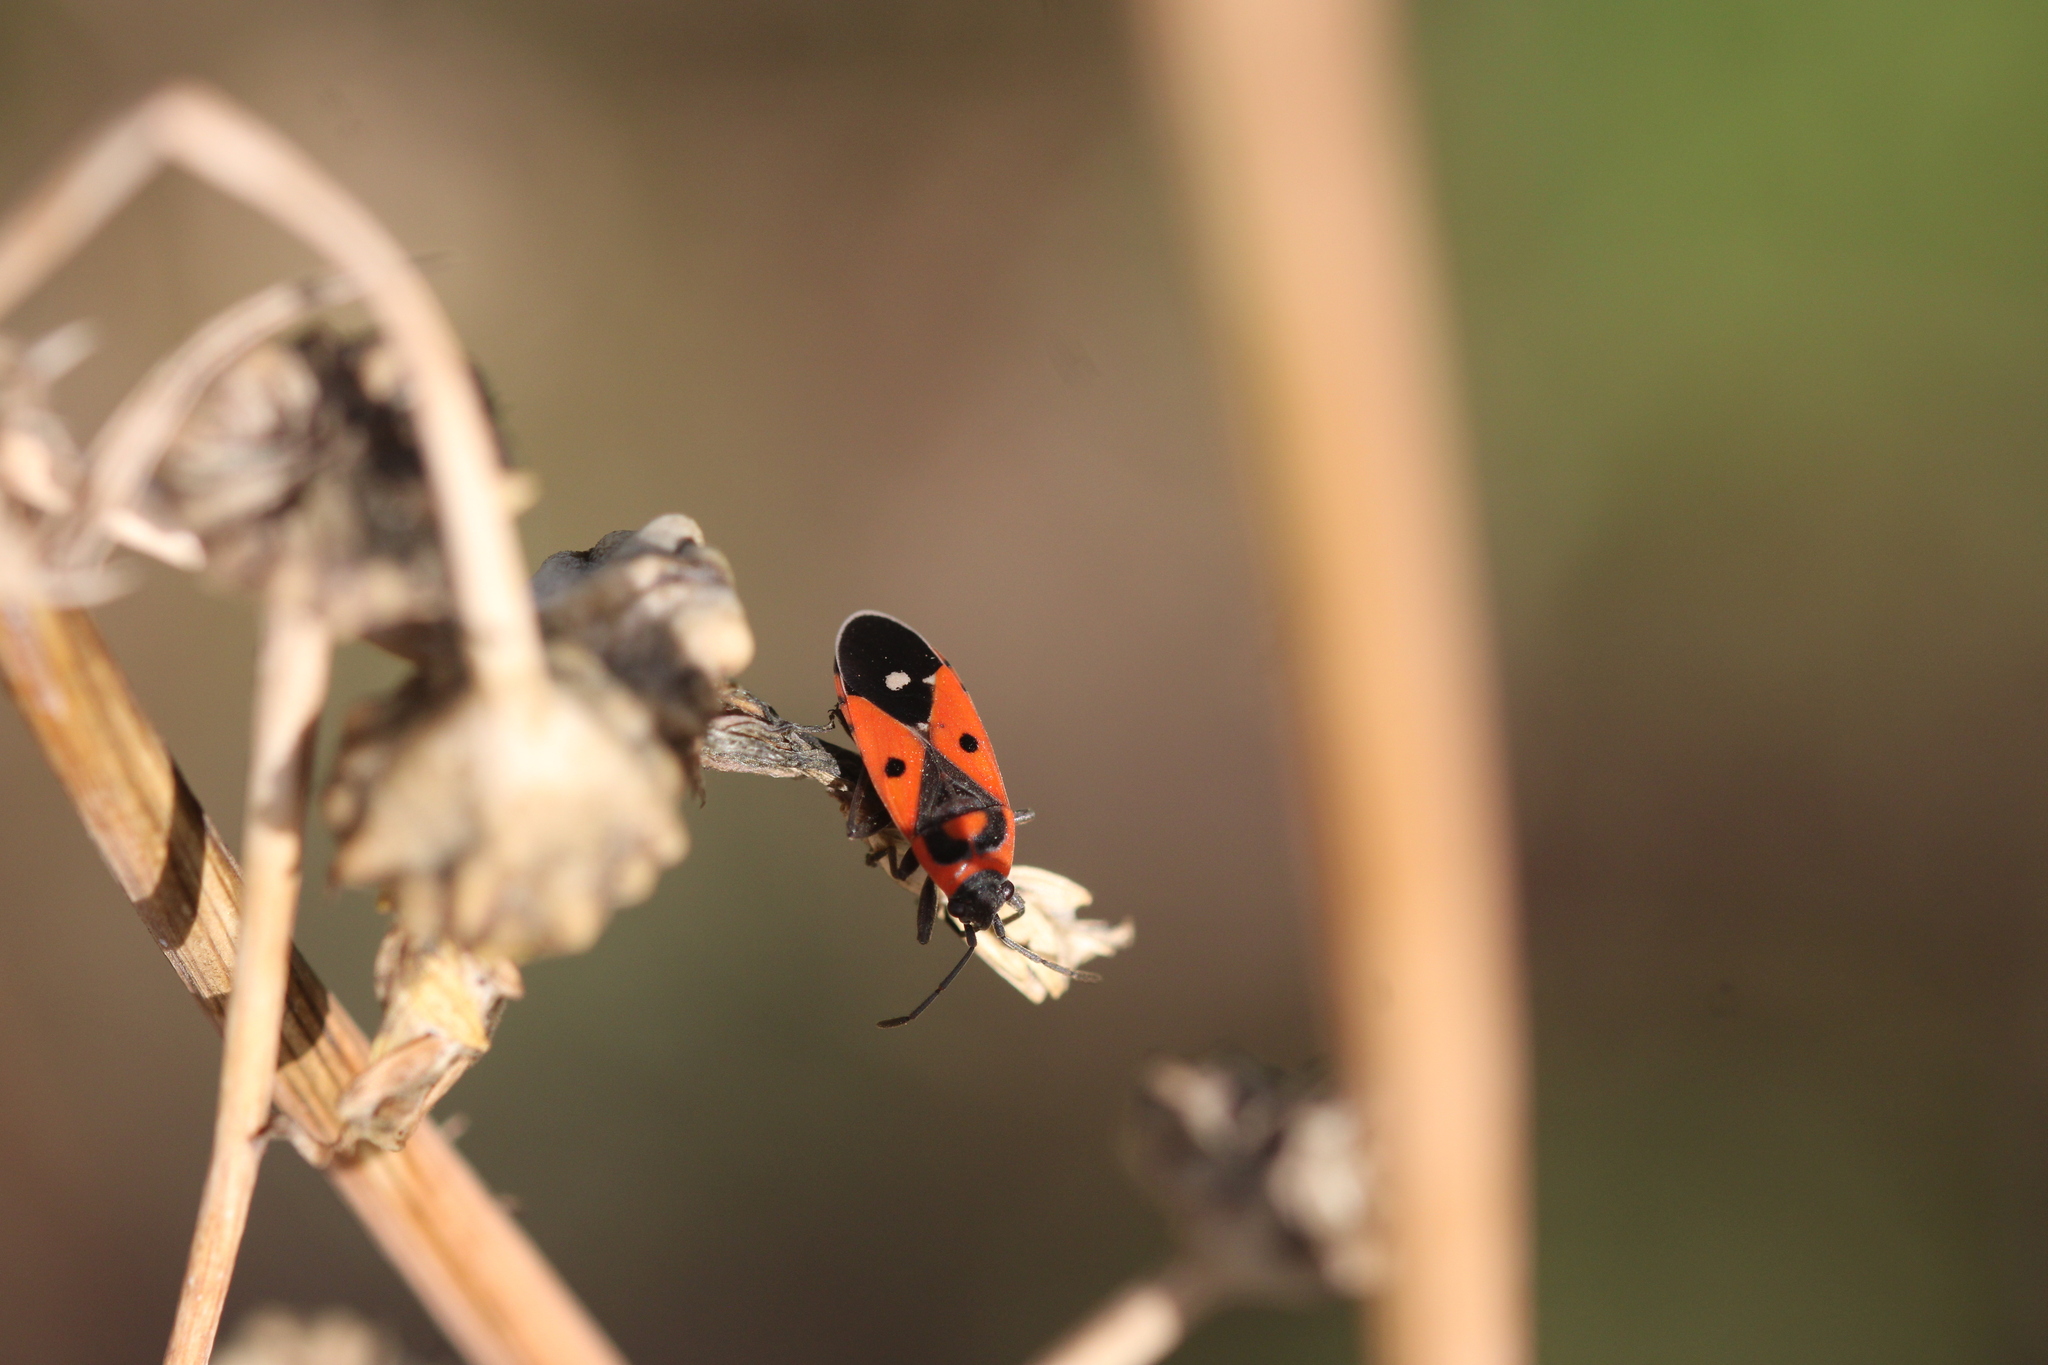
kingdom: Animalia
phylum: Arthropoda
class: Insecta
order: Hemiptera
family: Lygaeidae
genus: Melanocoryphus
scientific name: Melanocoryphus albomaculatus
